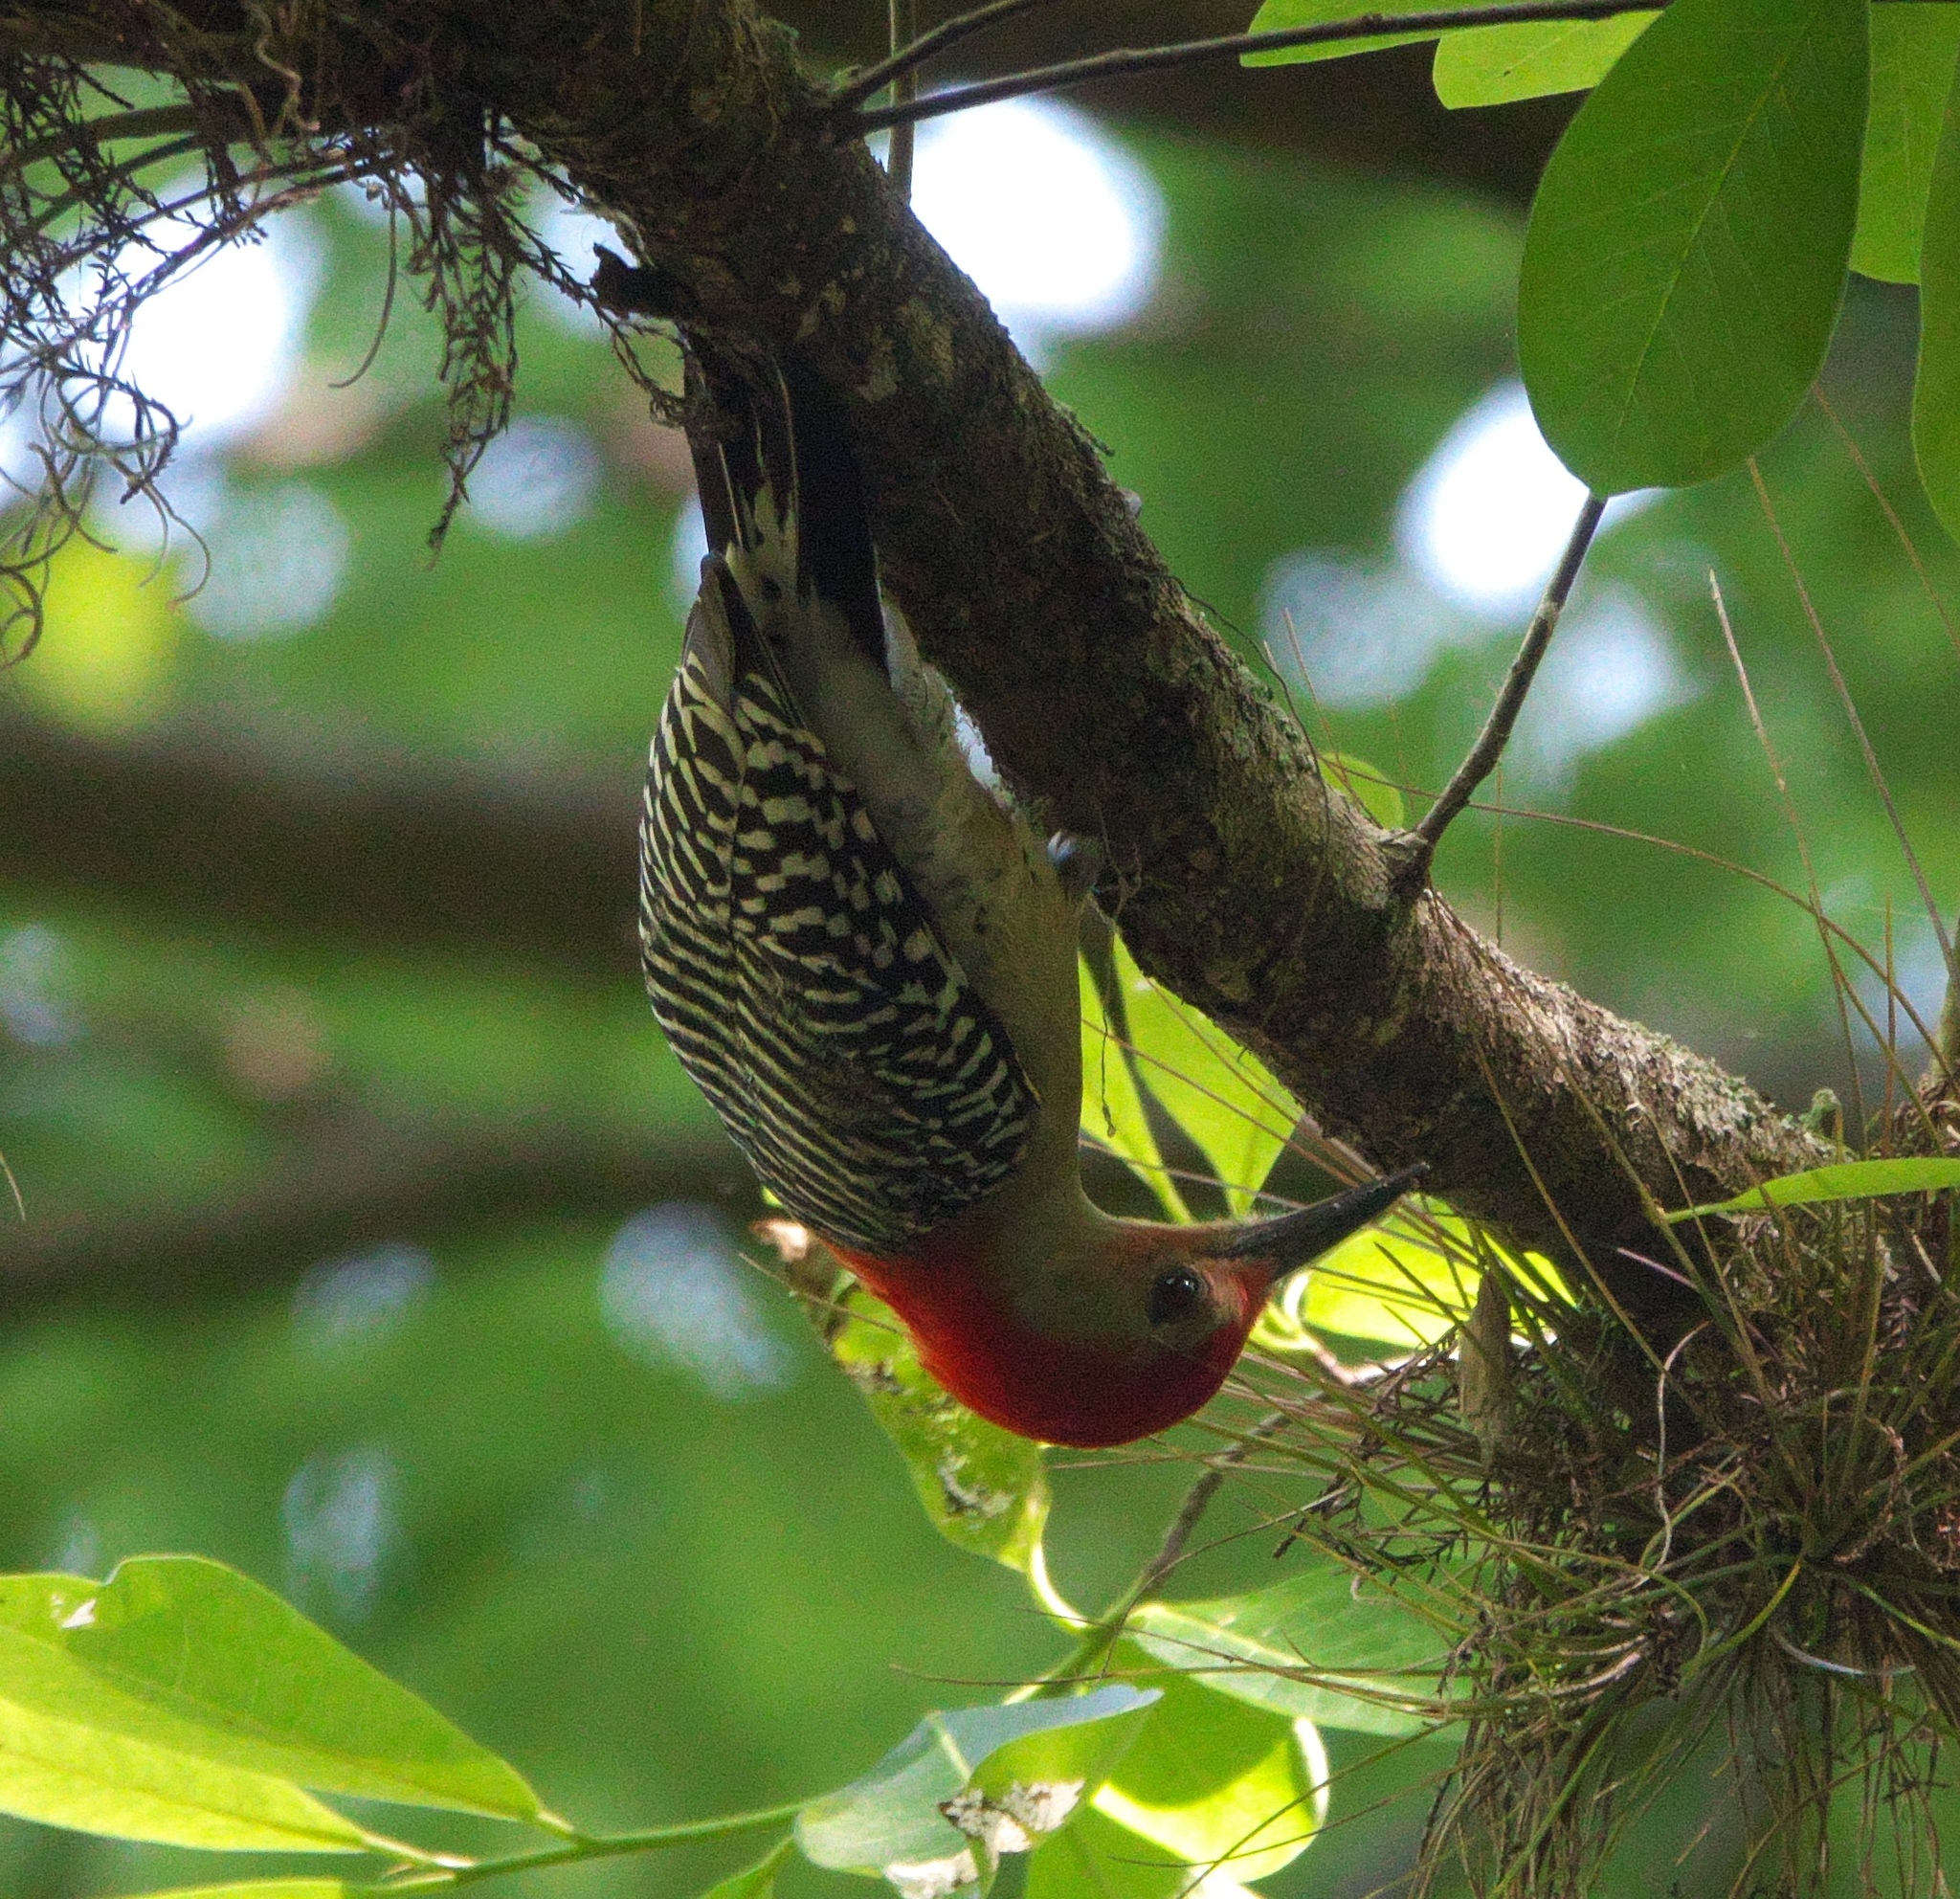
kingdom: Animalia
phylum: Chordata
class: Aves
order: Piciformes
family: Picidae
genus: Melanerpes
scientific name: Melanerpes carolinus
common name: Red-bellied woodpecker
